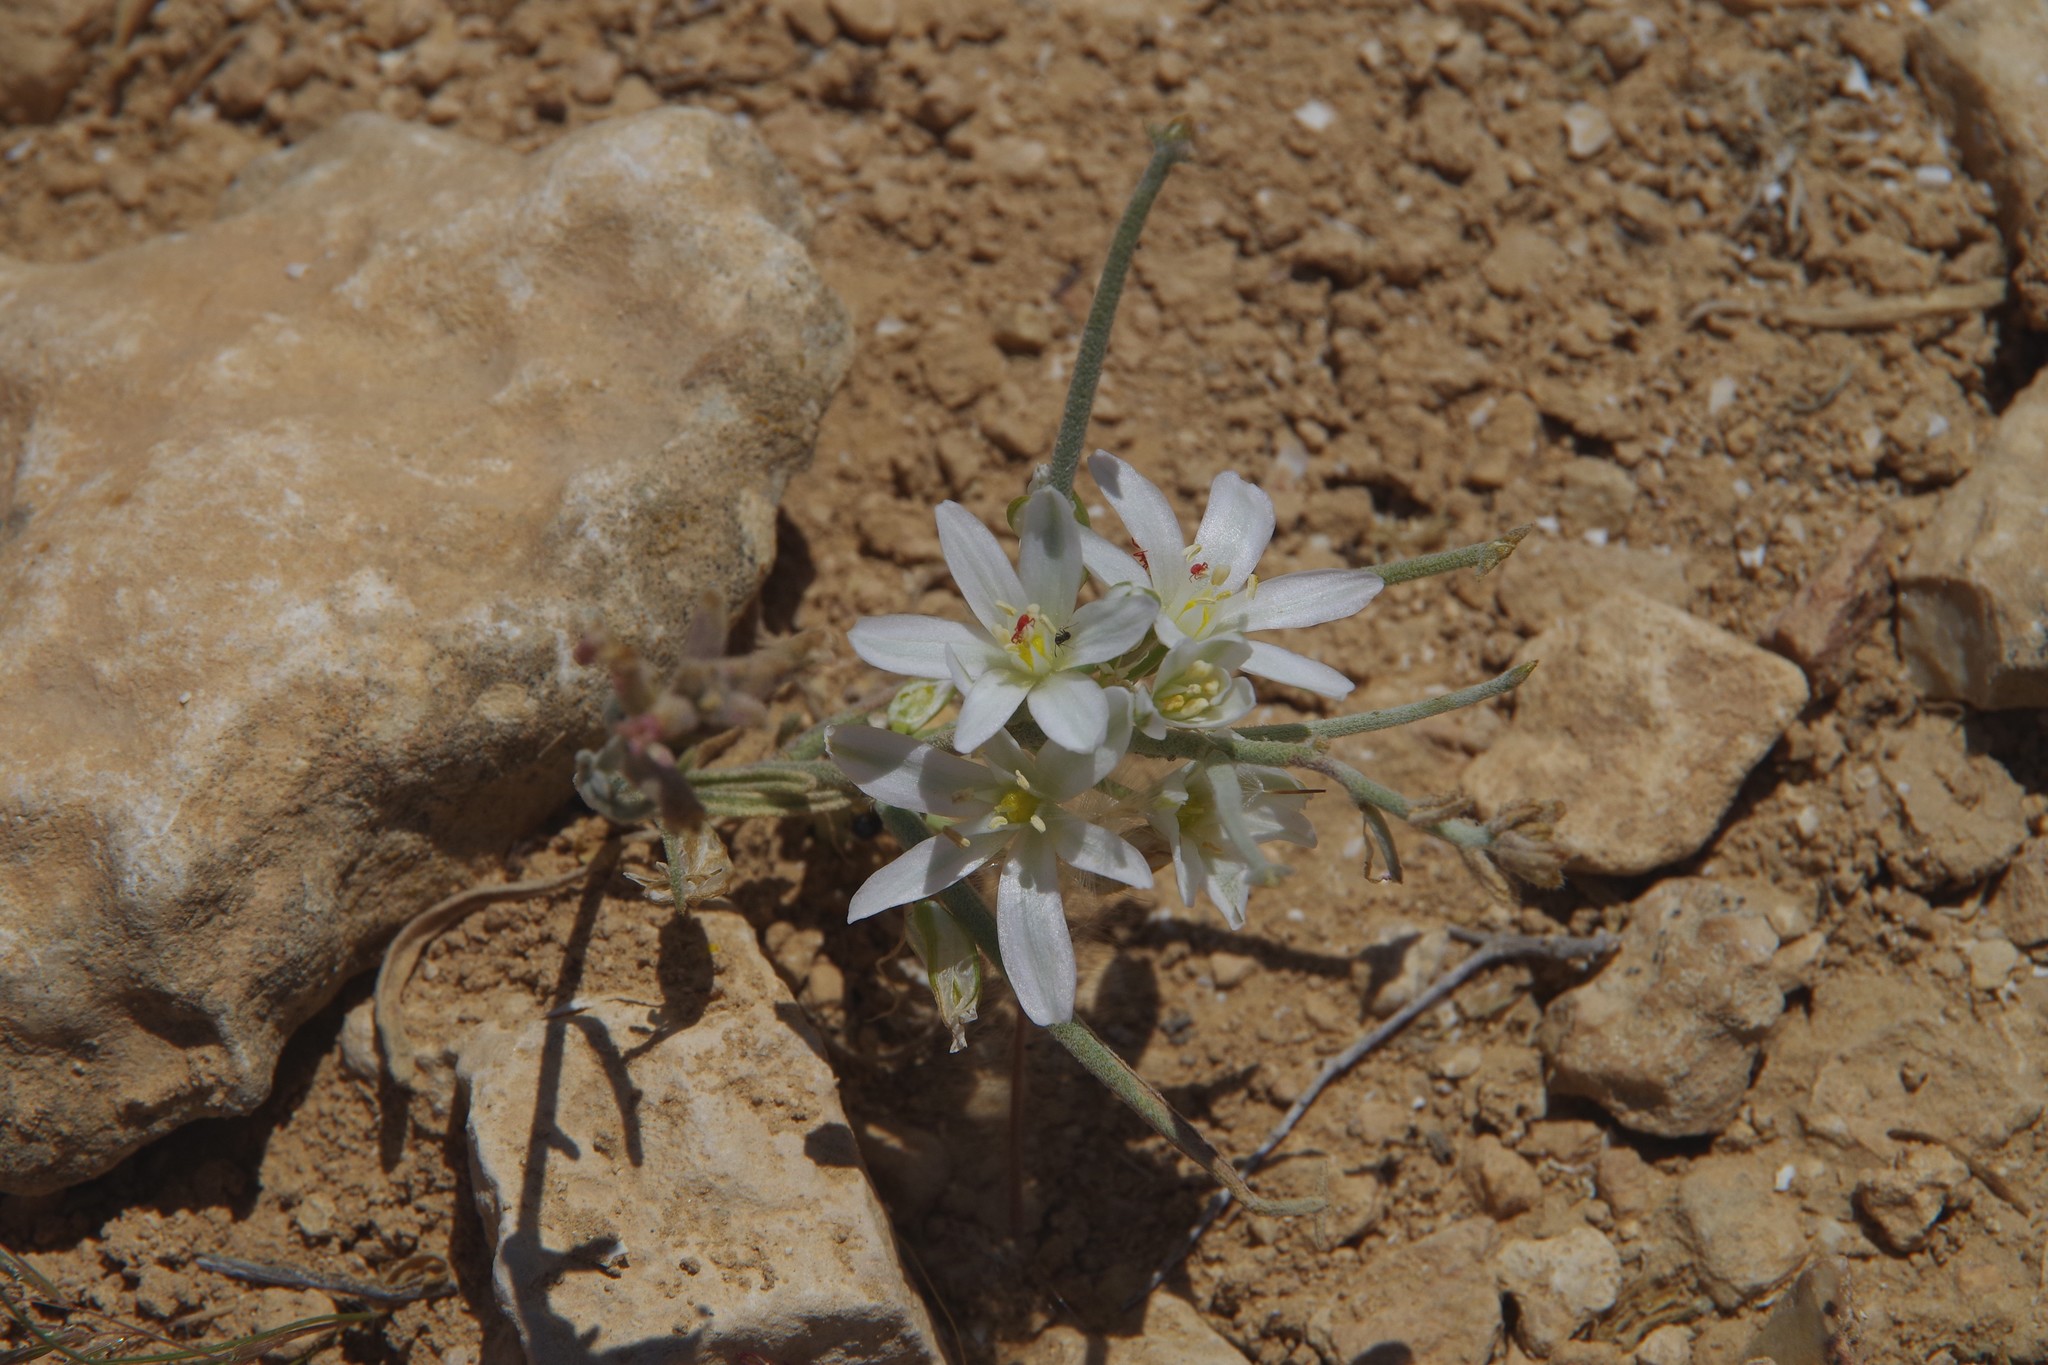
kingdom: Plantae
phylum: Tracheophyta
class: Liliopsida
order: Asparagales
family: Asparagaceae
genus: Ornithogalum
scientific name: Ornithogalum neurostegium
